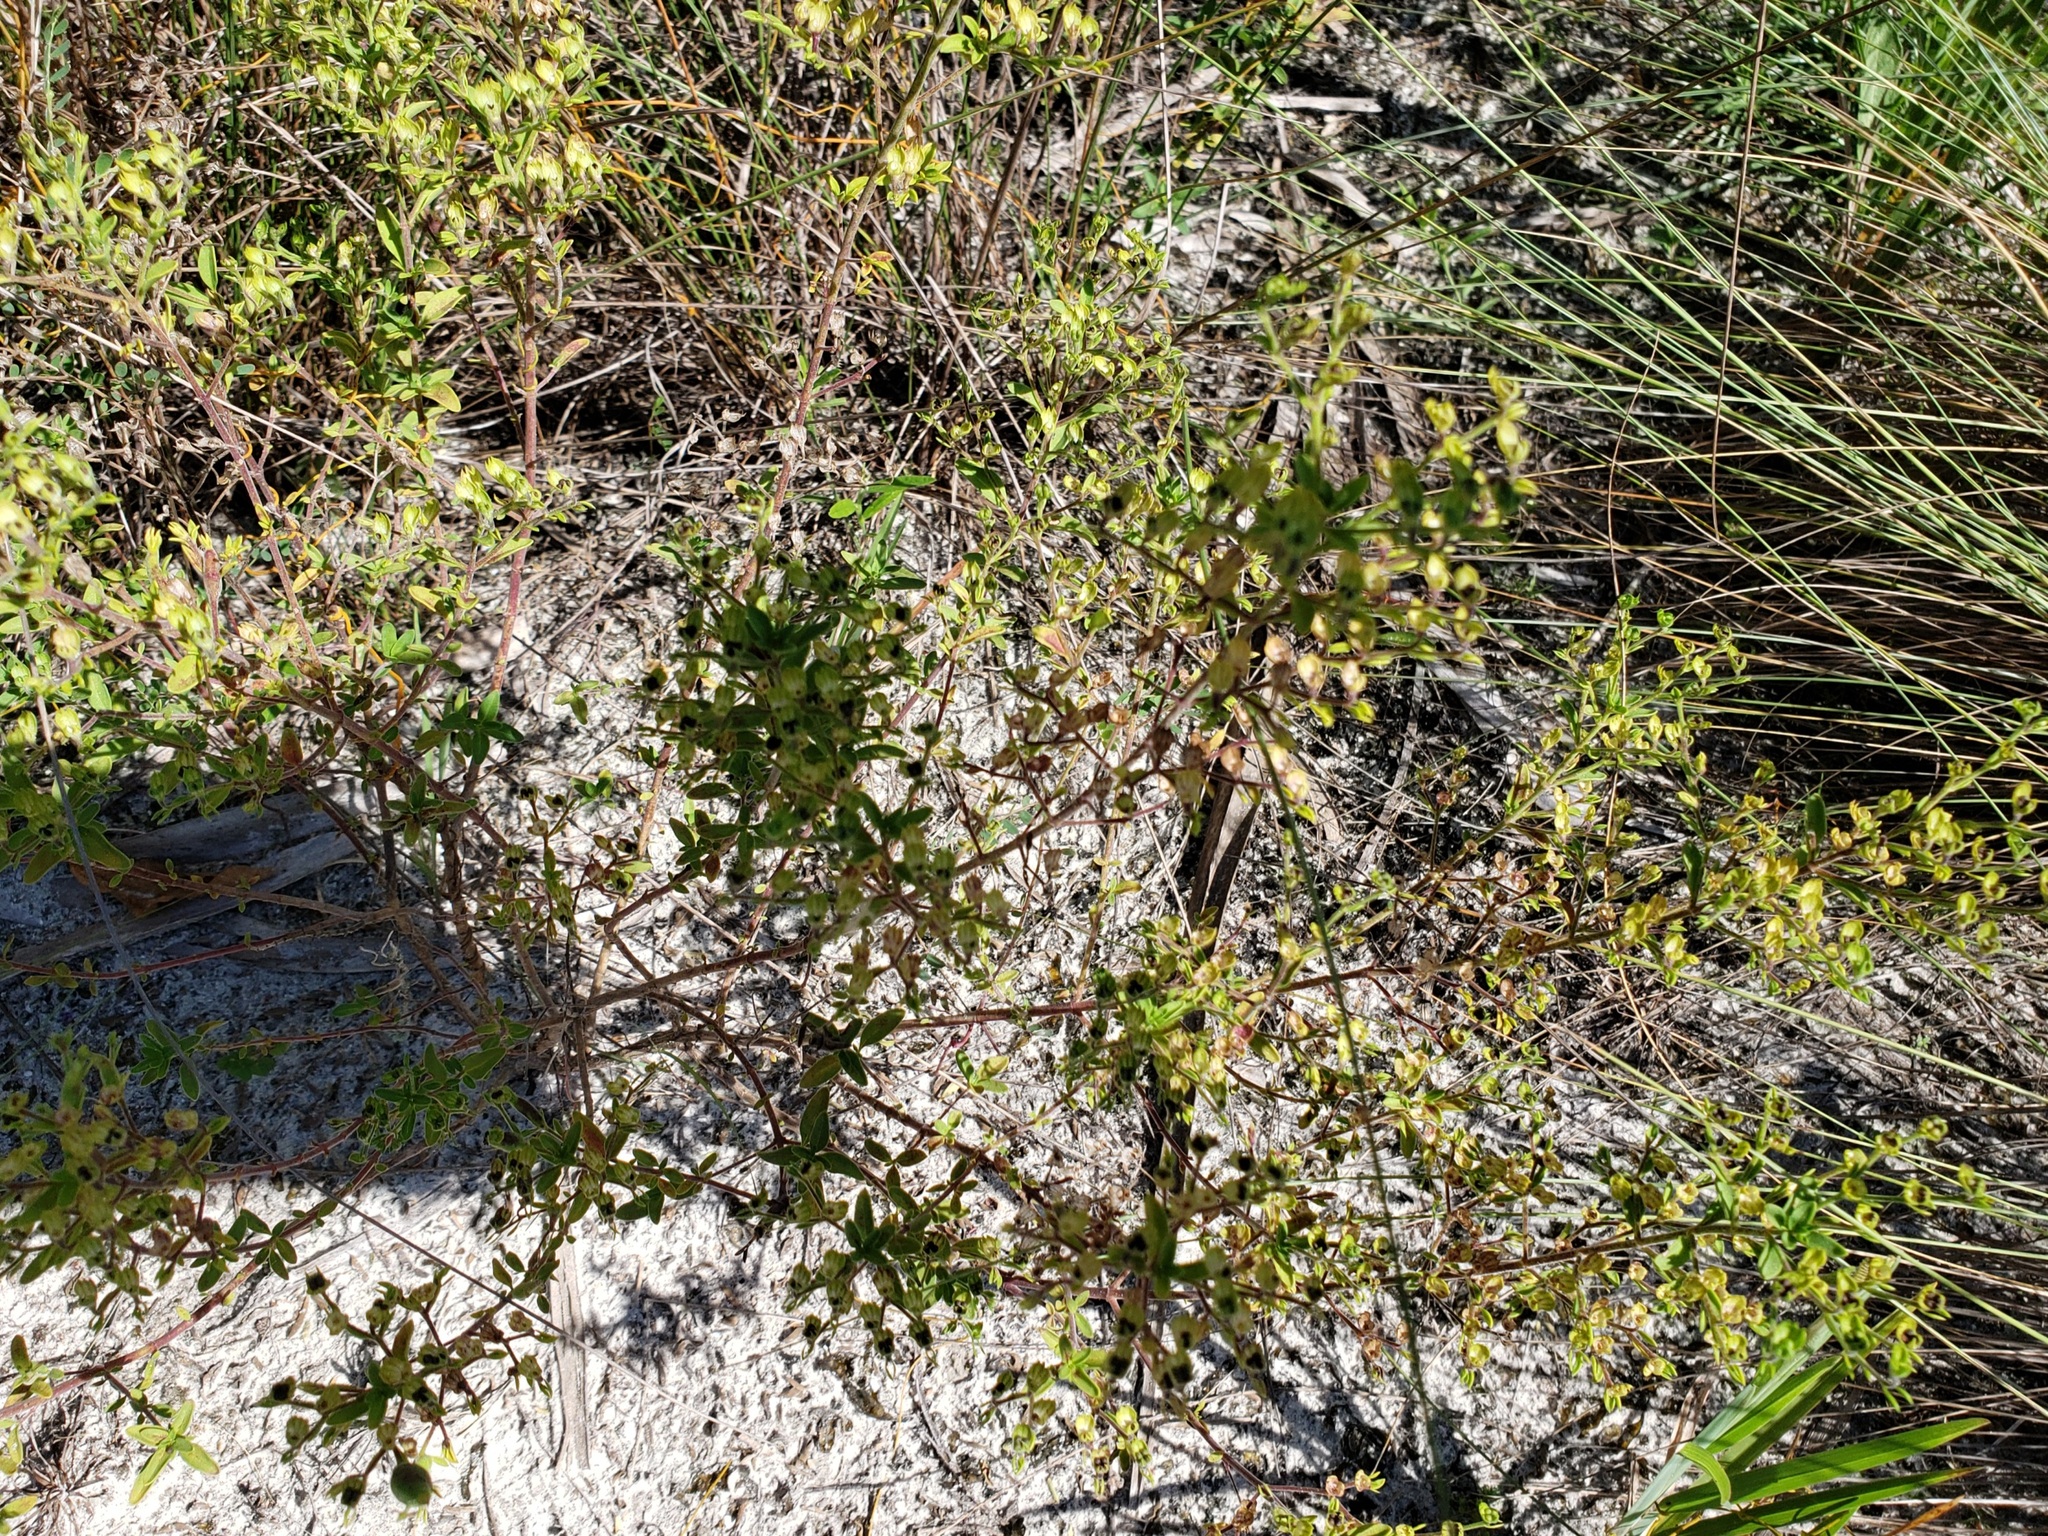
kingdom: Plantae
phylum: Tracheophyta
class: Magnoliopsida
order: Lamiales
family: Lamiaceae
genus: Trichostema
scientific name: Trichostema
